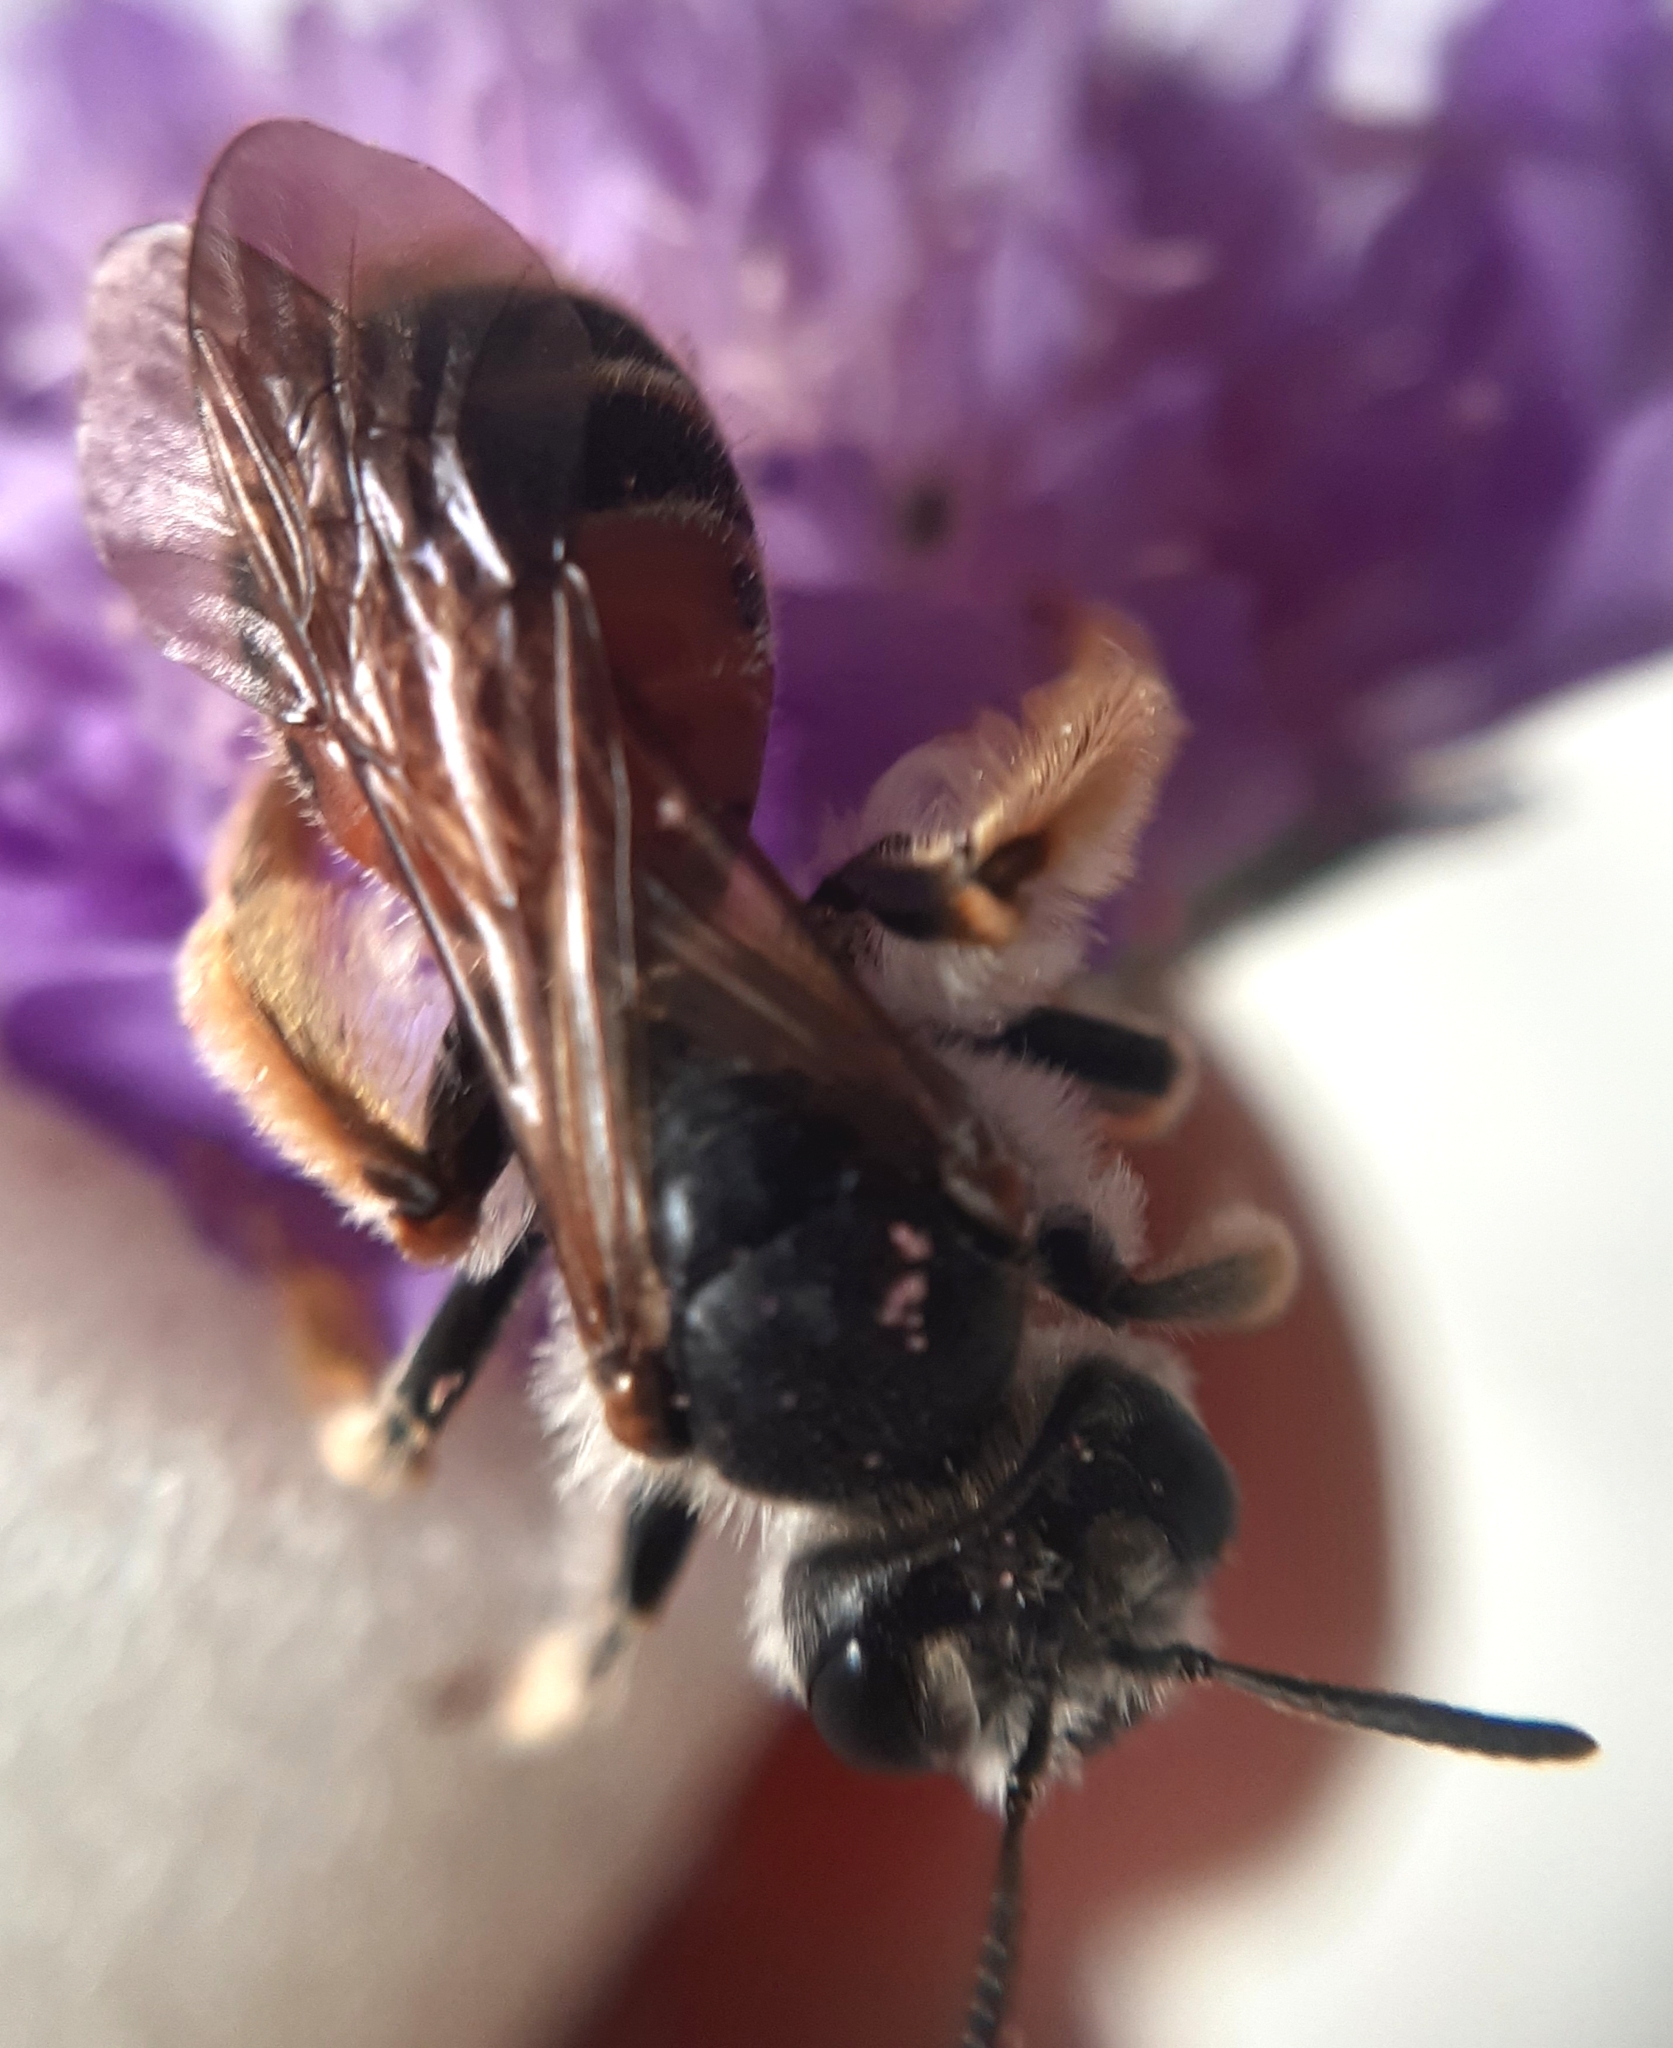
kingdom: Animalia
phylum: Arthropoda
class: Insecta
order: Hymenoptera
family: Andrenidae
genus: Andrena
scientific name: Andrena hattorfiana
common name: Large scabious mining bee
